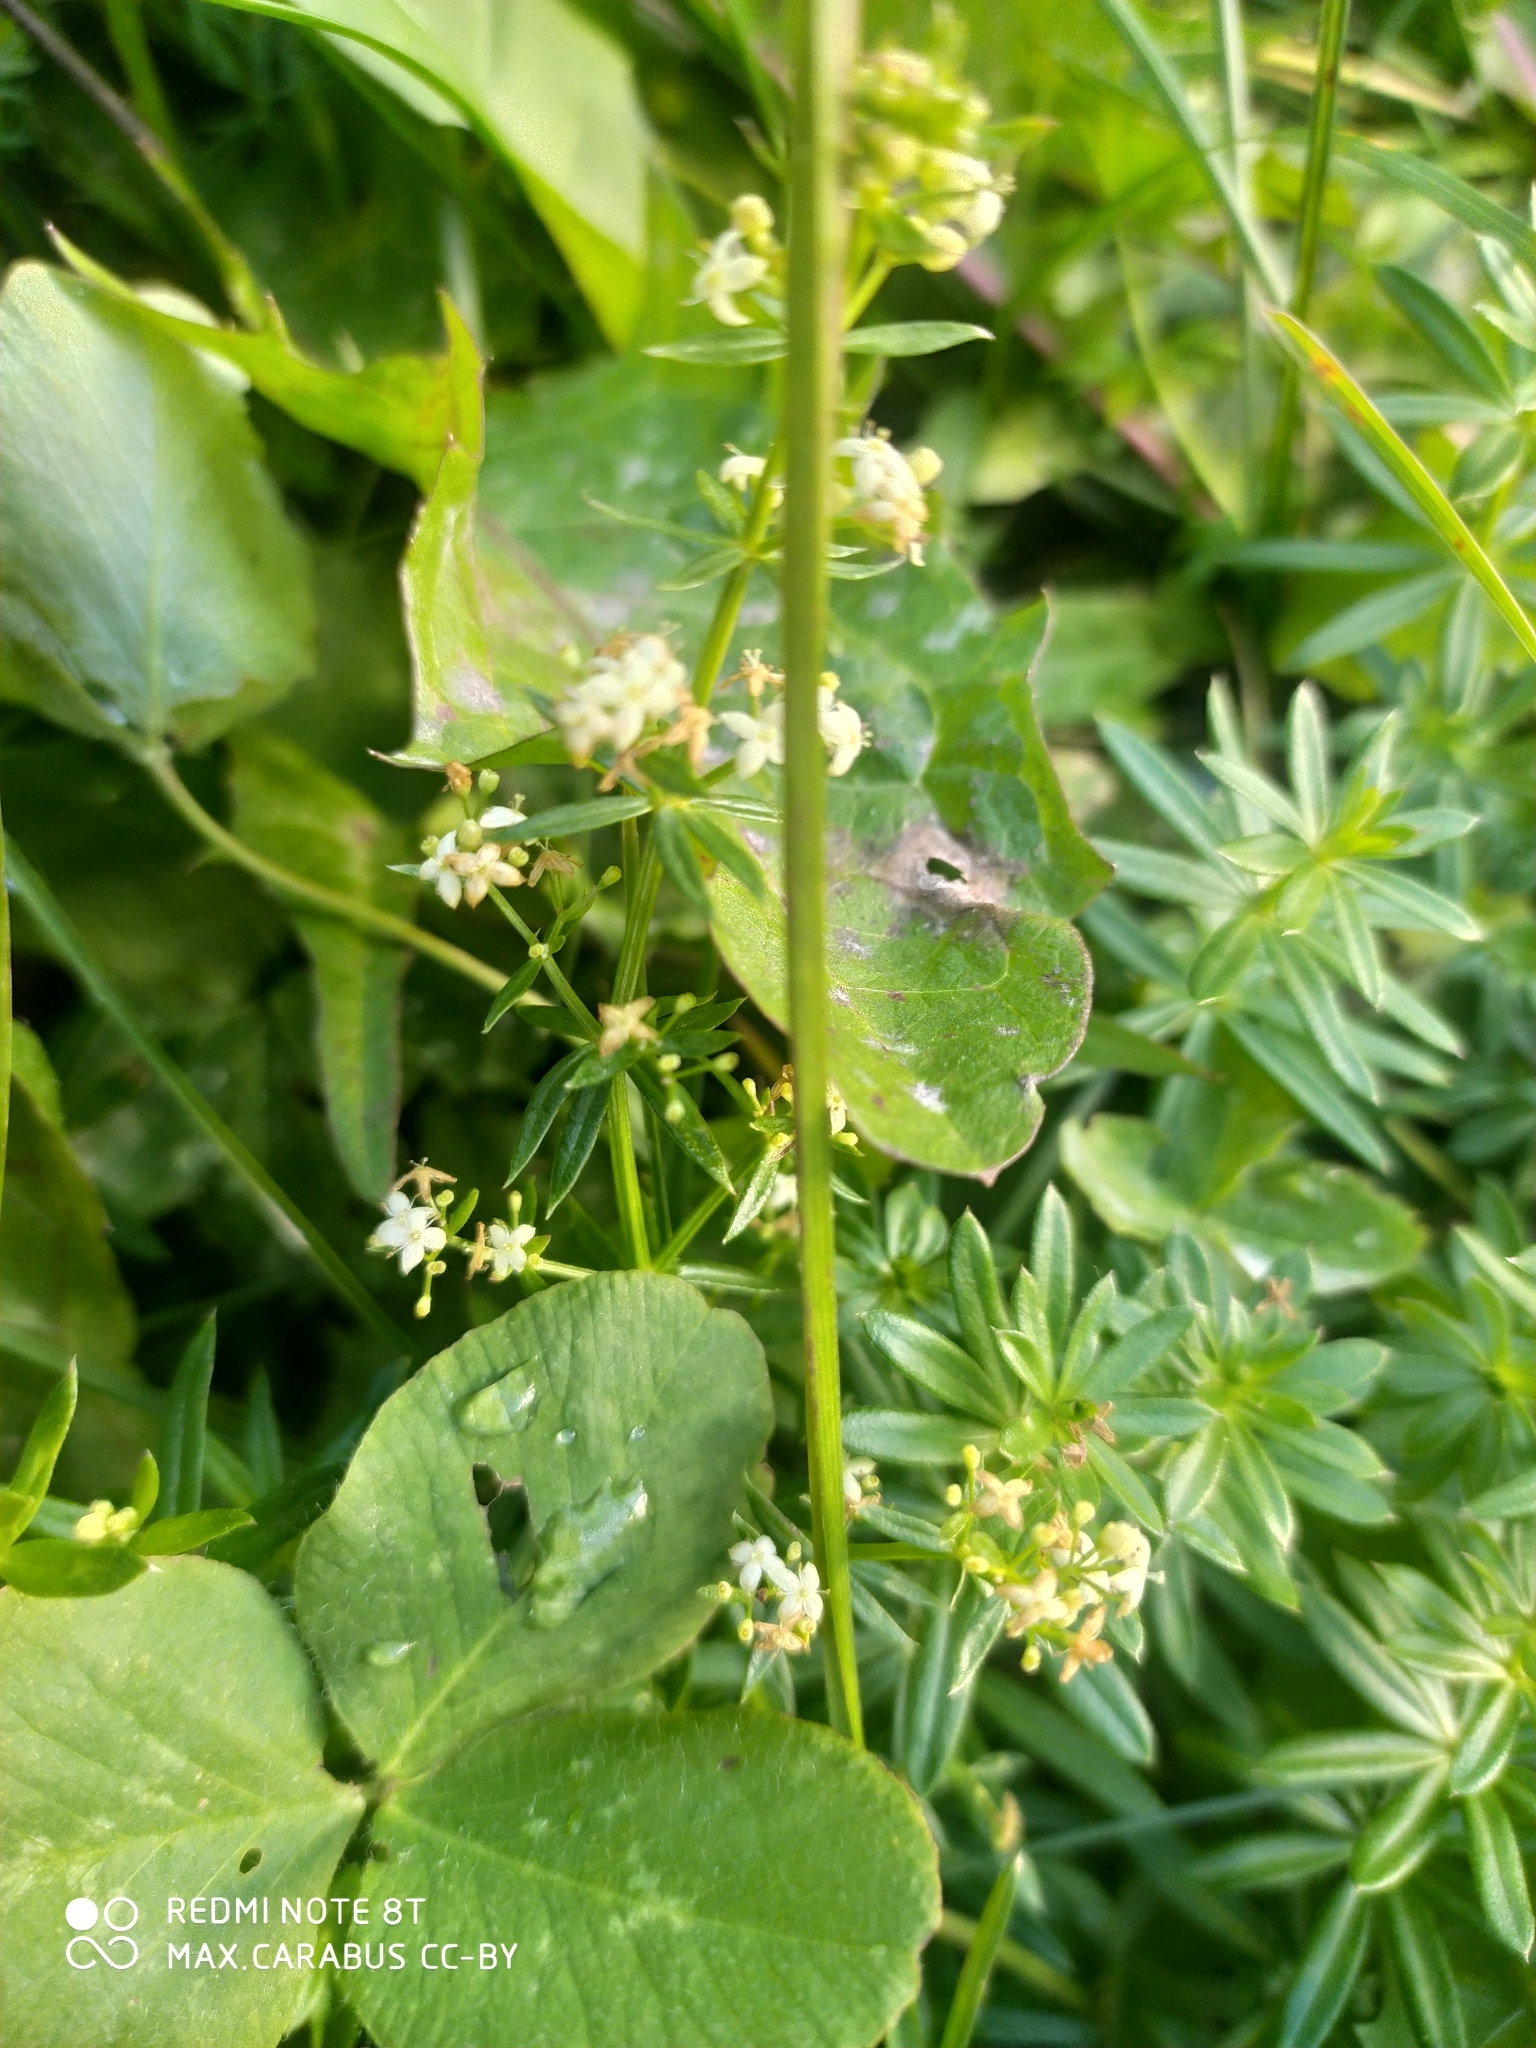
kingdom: Plantae
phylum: Tracheophyta
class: Magnoliopsida
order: Gentianales
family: Rubiaceae
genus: Galium
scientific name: Galium mollugo
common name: Hedge bedstraw
